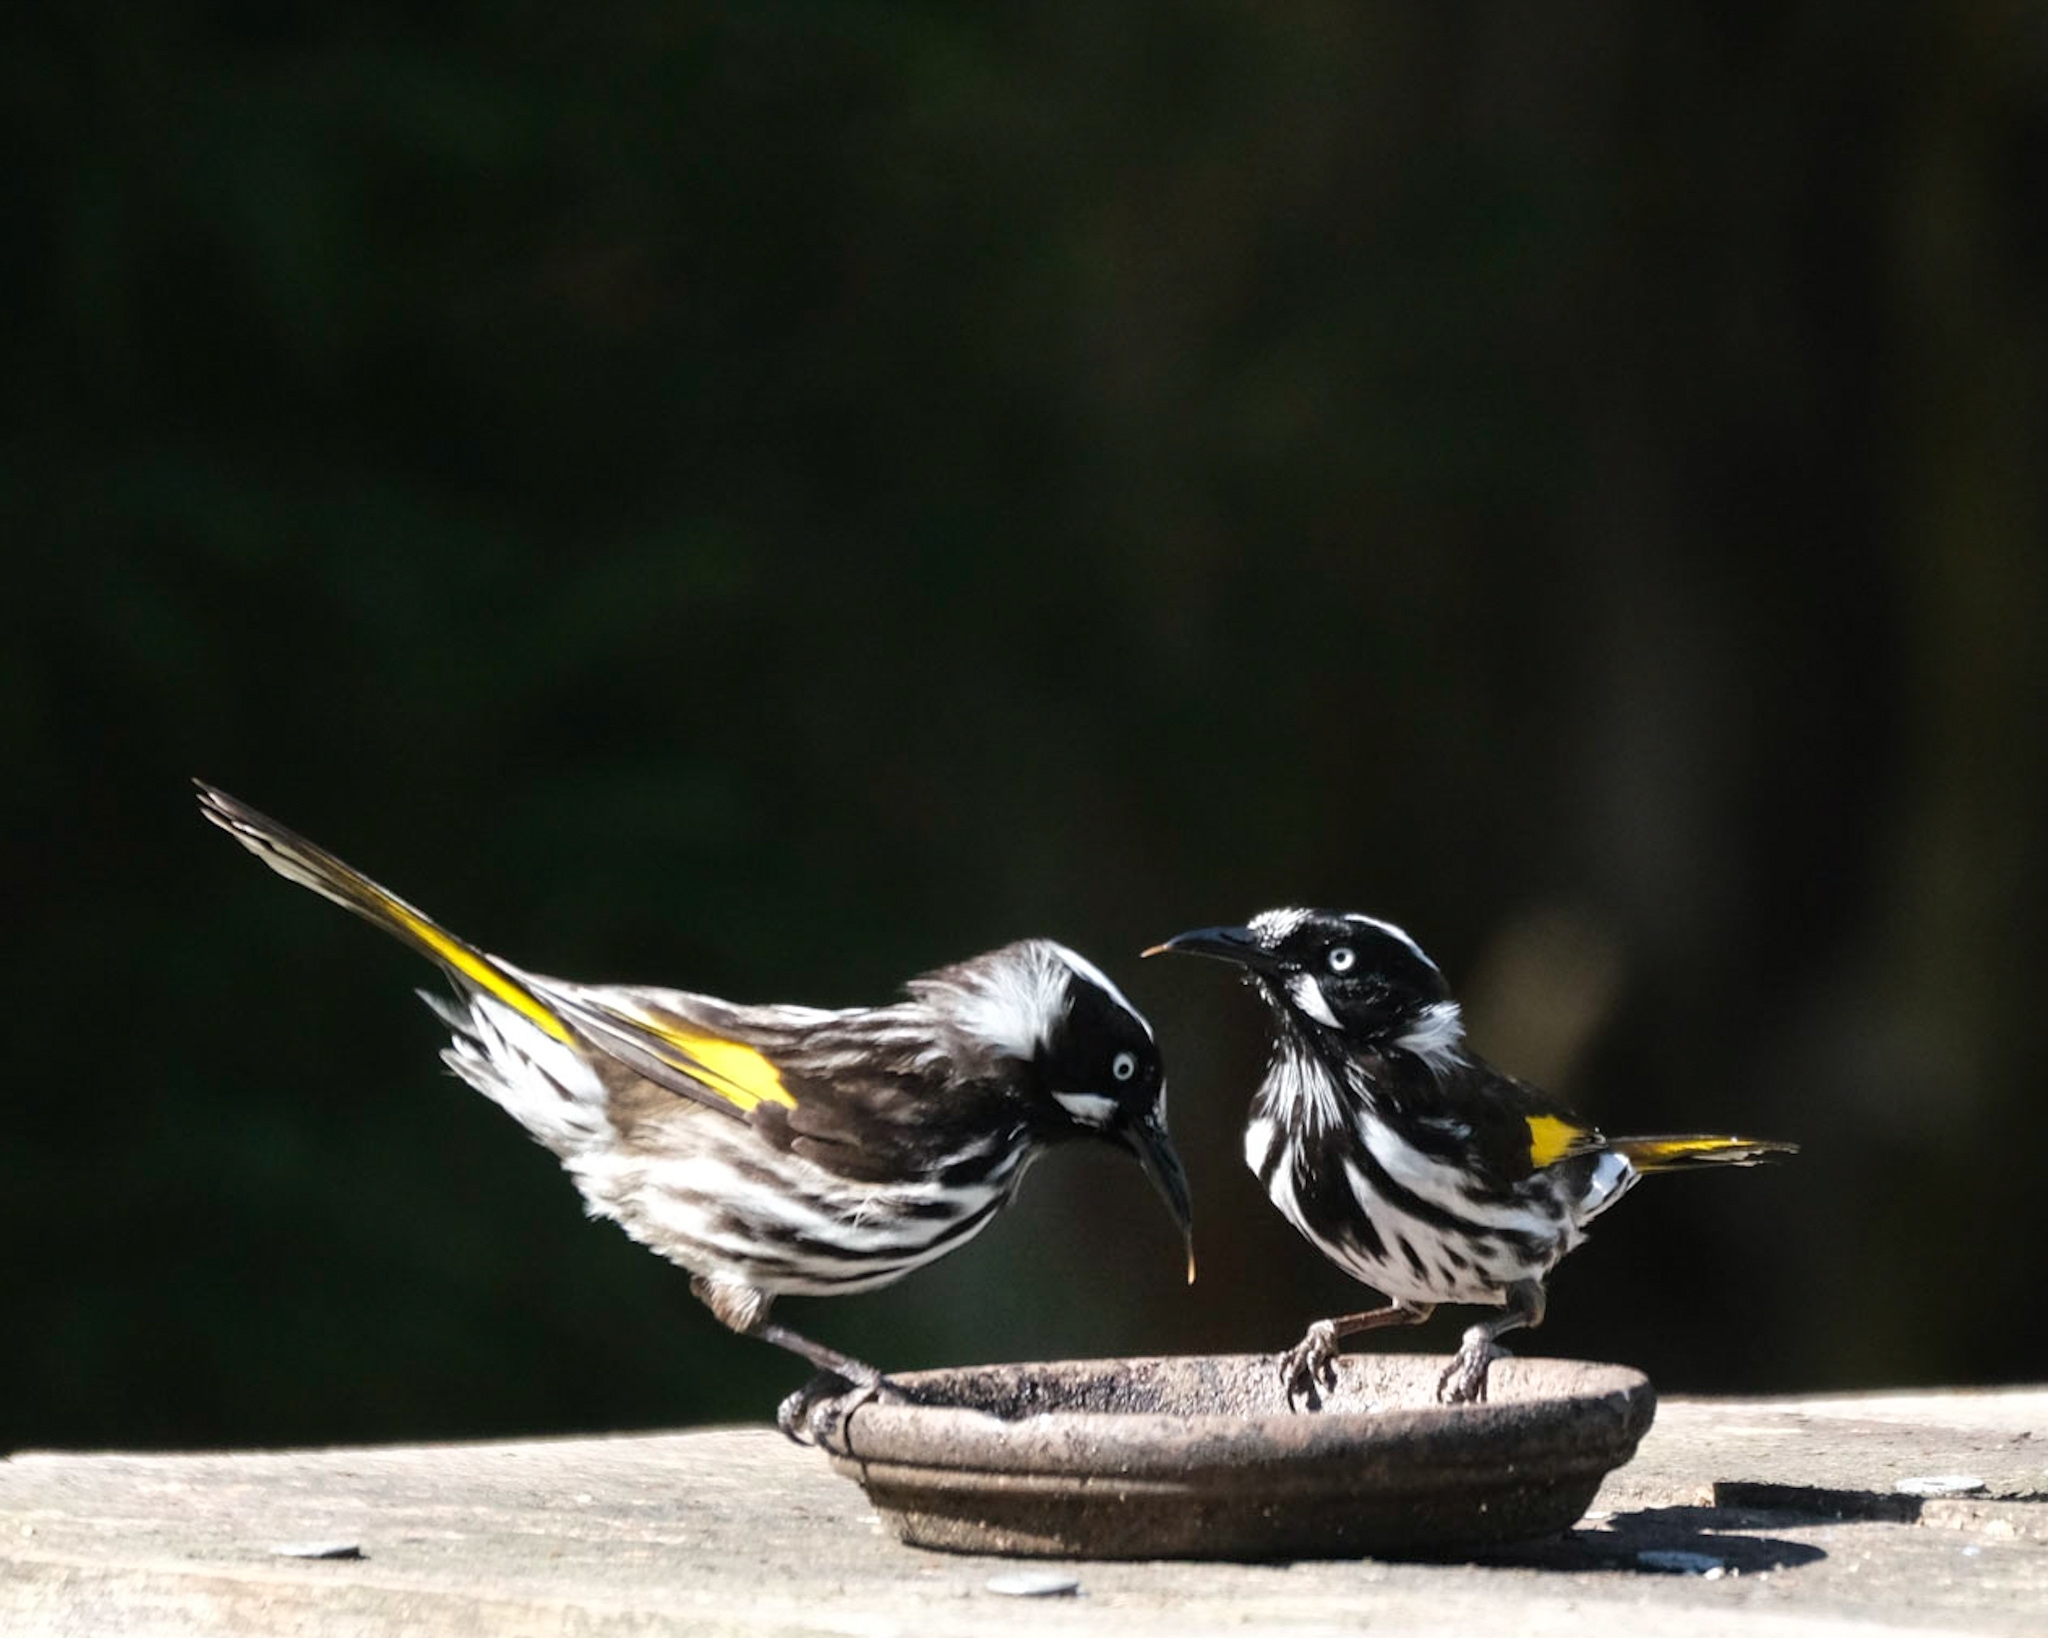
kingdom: Animalia
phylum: Chordata
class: Aves
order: Passeriformes
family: Meliphagidae
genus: Phylidonyris
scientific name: Phylidonyris novaehollandiae
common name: New holland honeyeater
